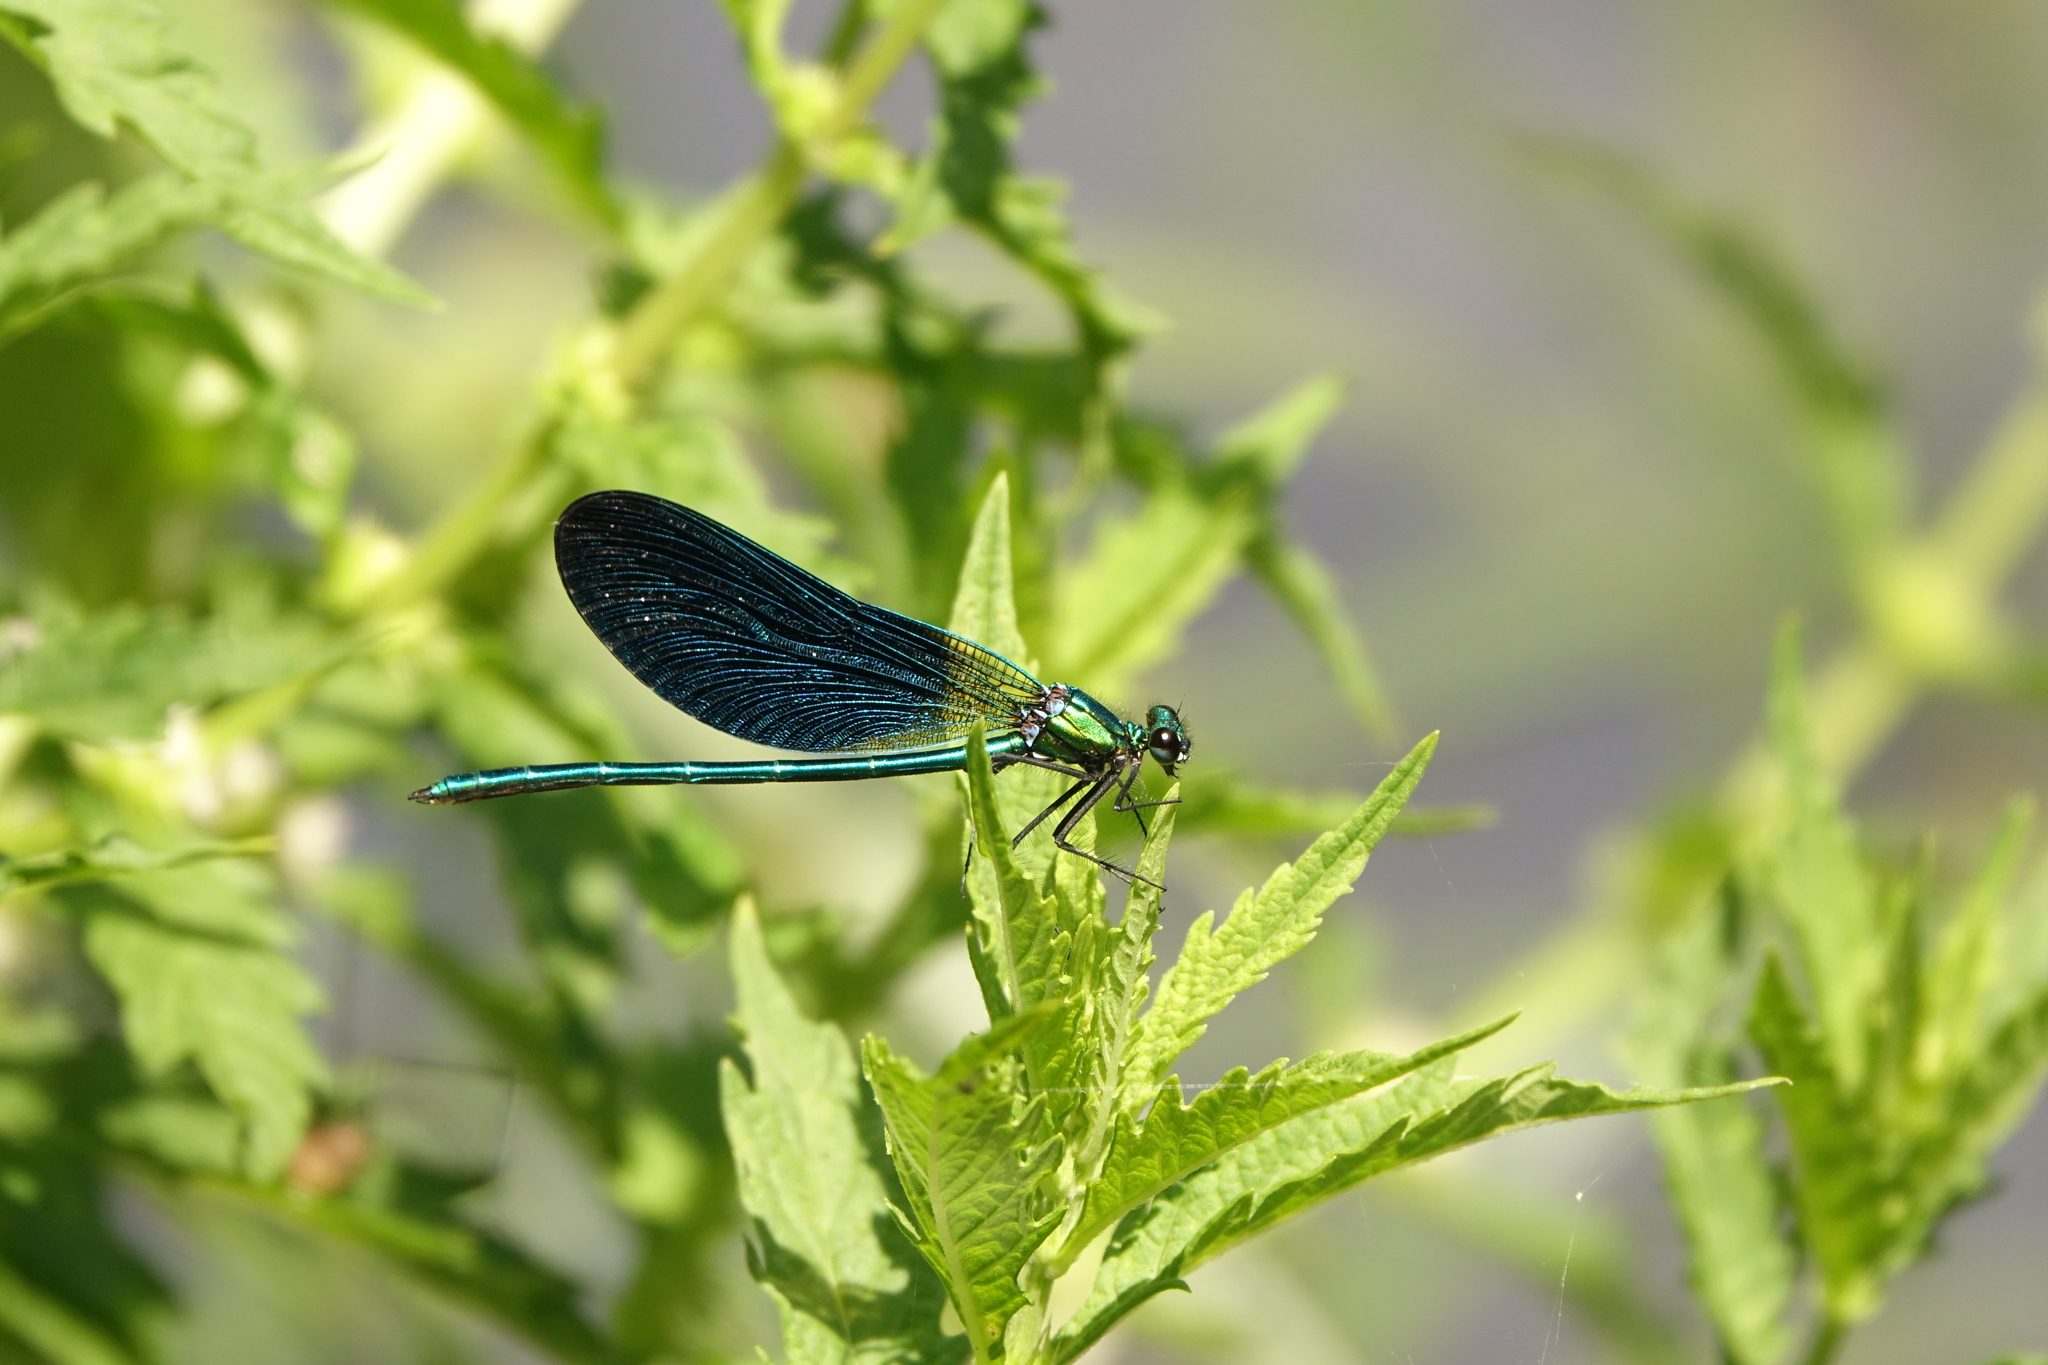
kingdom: Animalia
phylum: Arthropoda
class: Insecta
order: Odonata
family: Calopterygidae
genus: Calopteryx
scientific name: Calopteryx virgo
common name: Beautiful demoiselle
